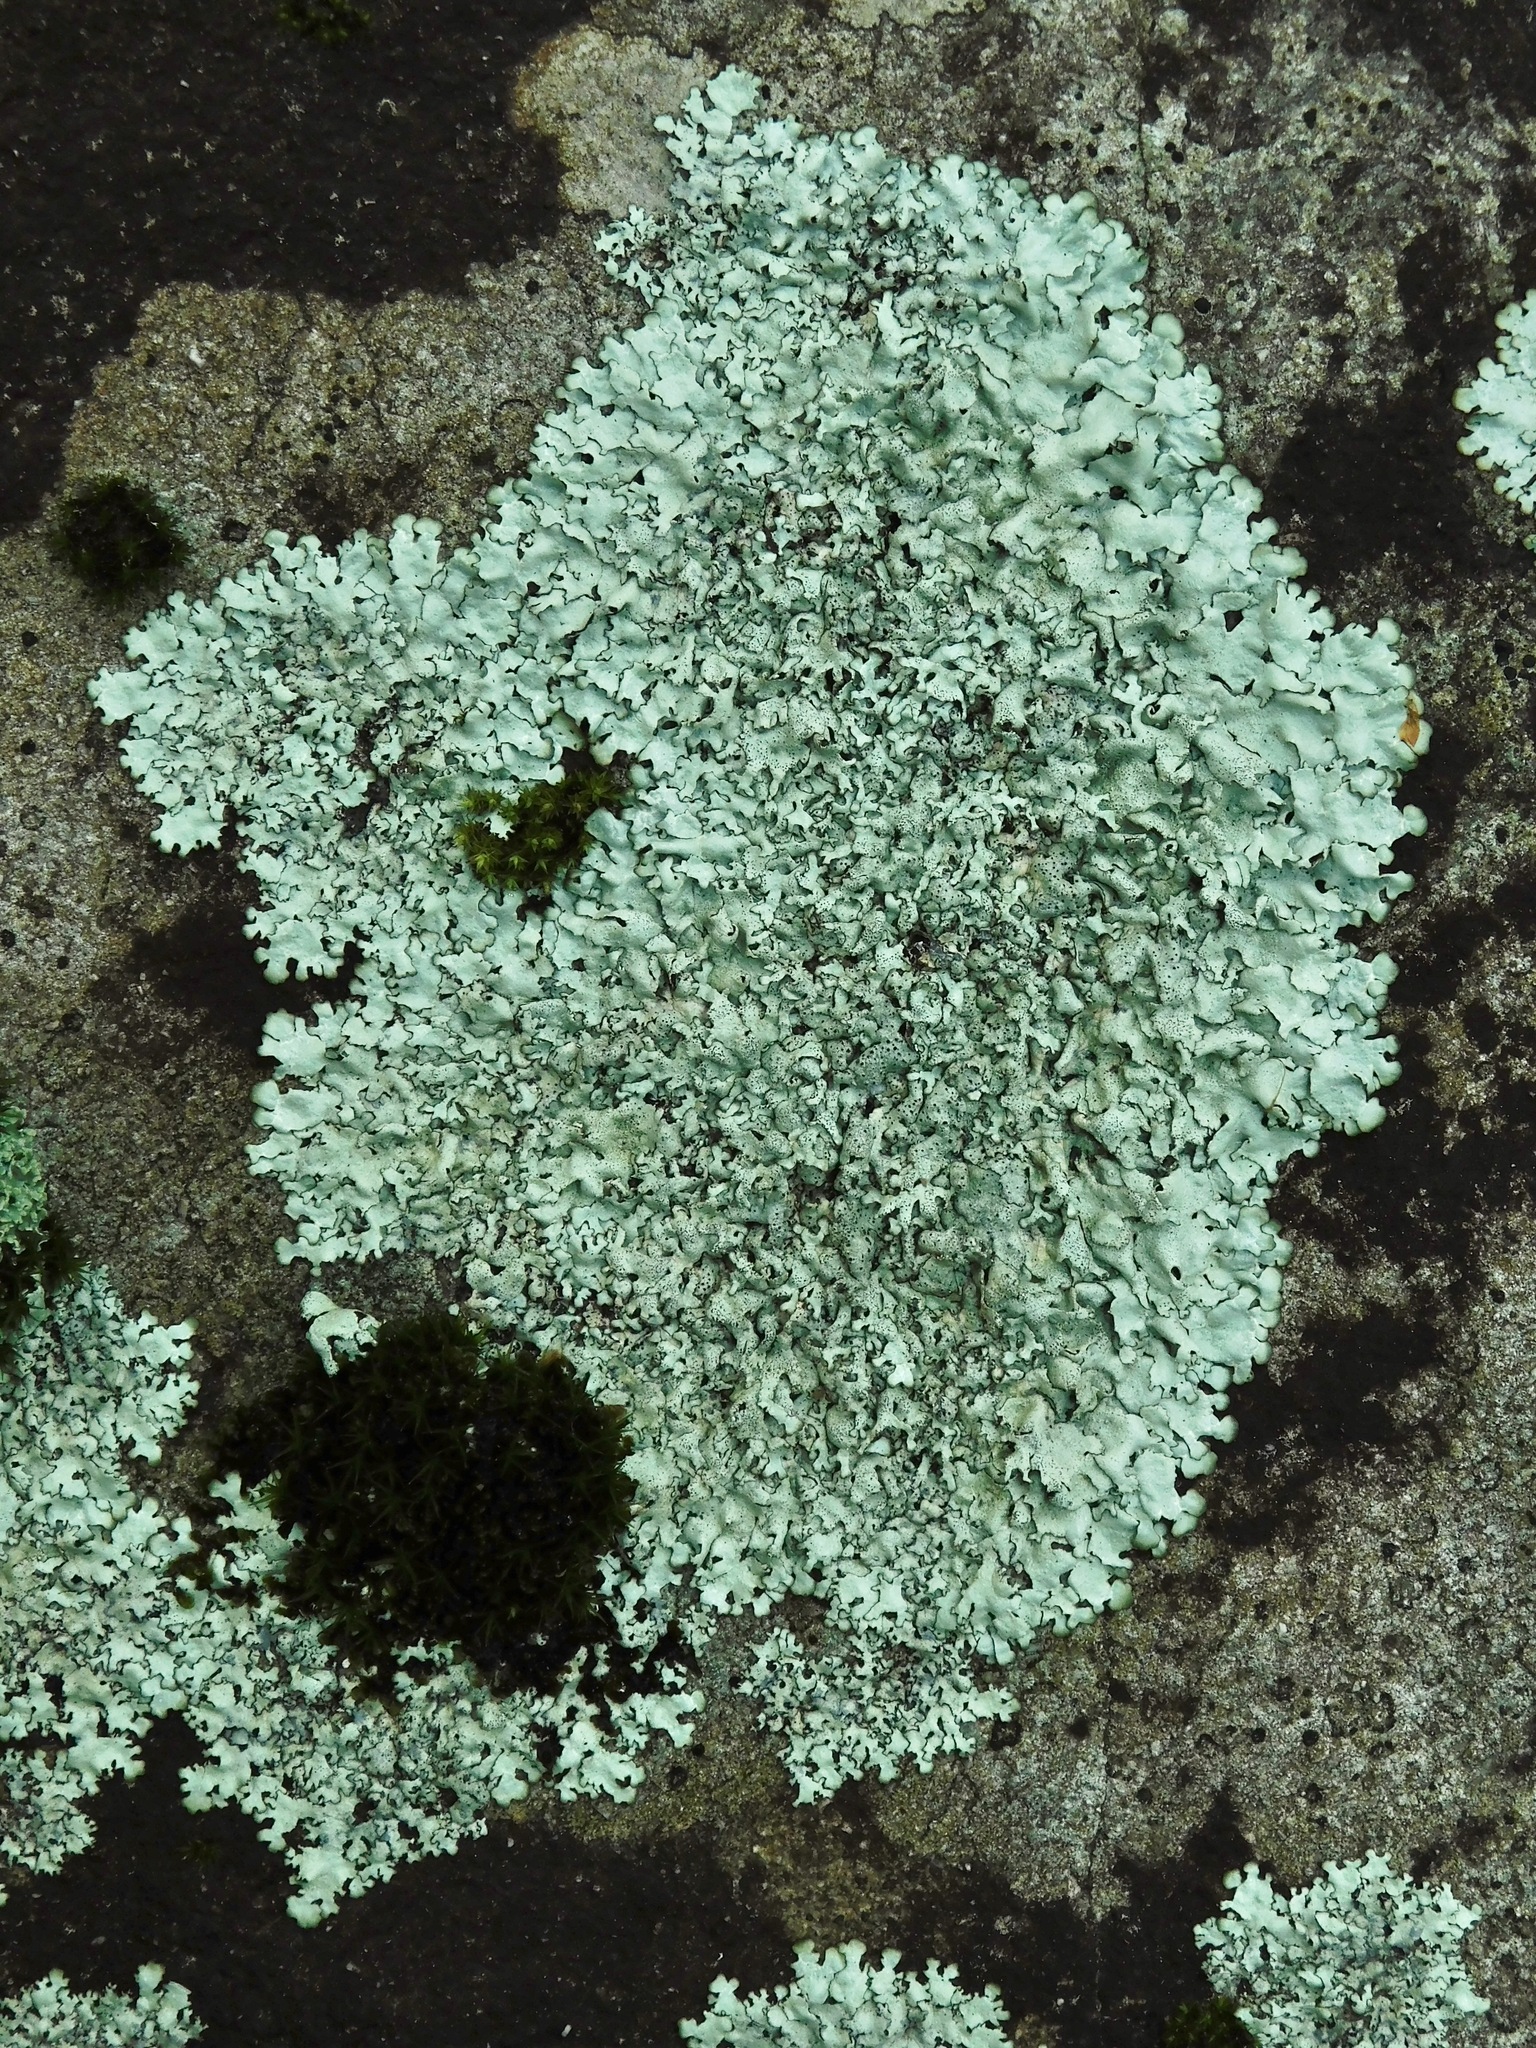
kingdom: Fungi
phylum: Ascomycota
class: Lecanoromycetes
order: Lecanorales
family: Parmeliaceae
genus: Xanthoparmelia
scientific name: Xanthoparmelia conspersa
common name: Peppered rock shield
